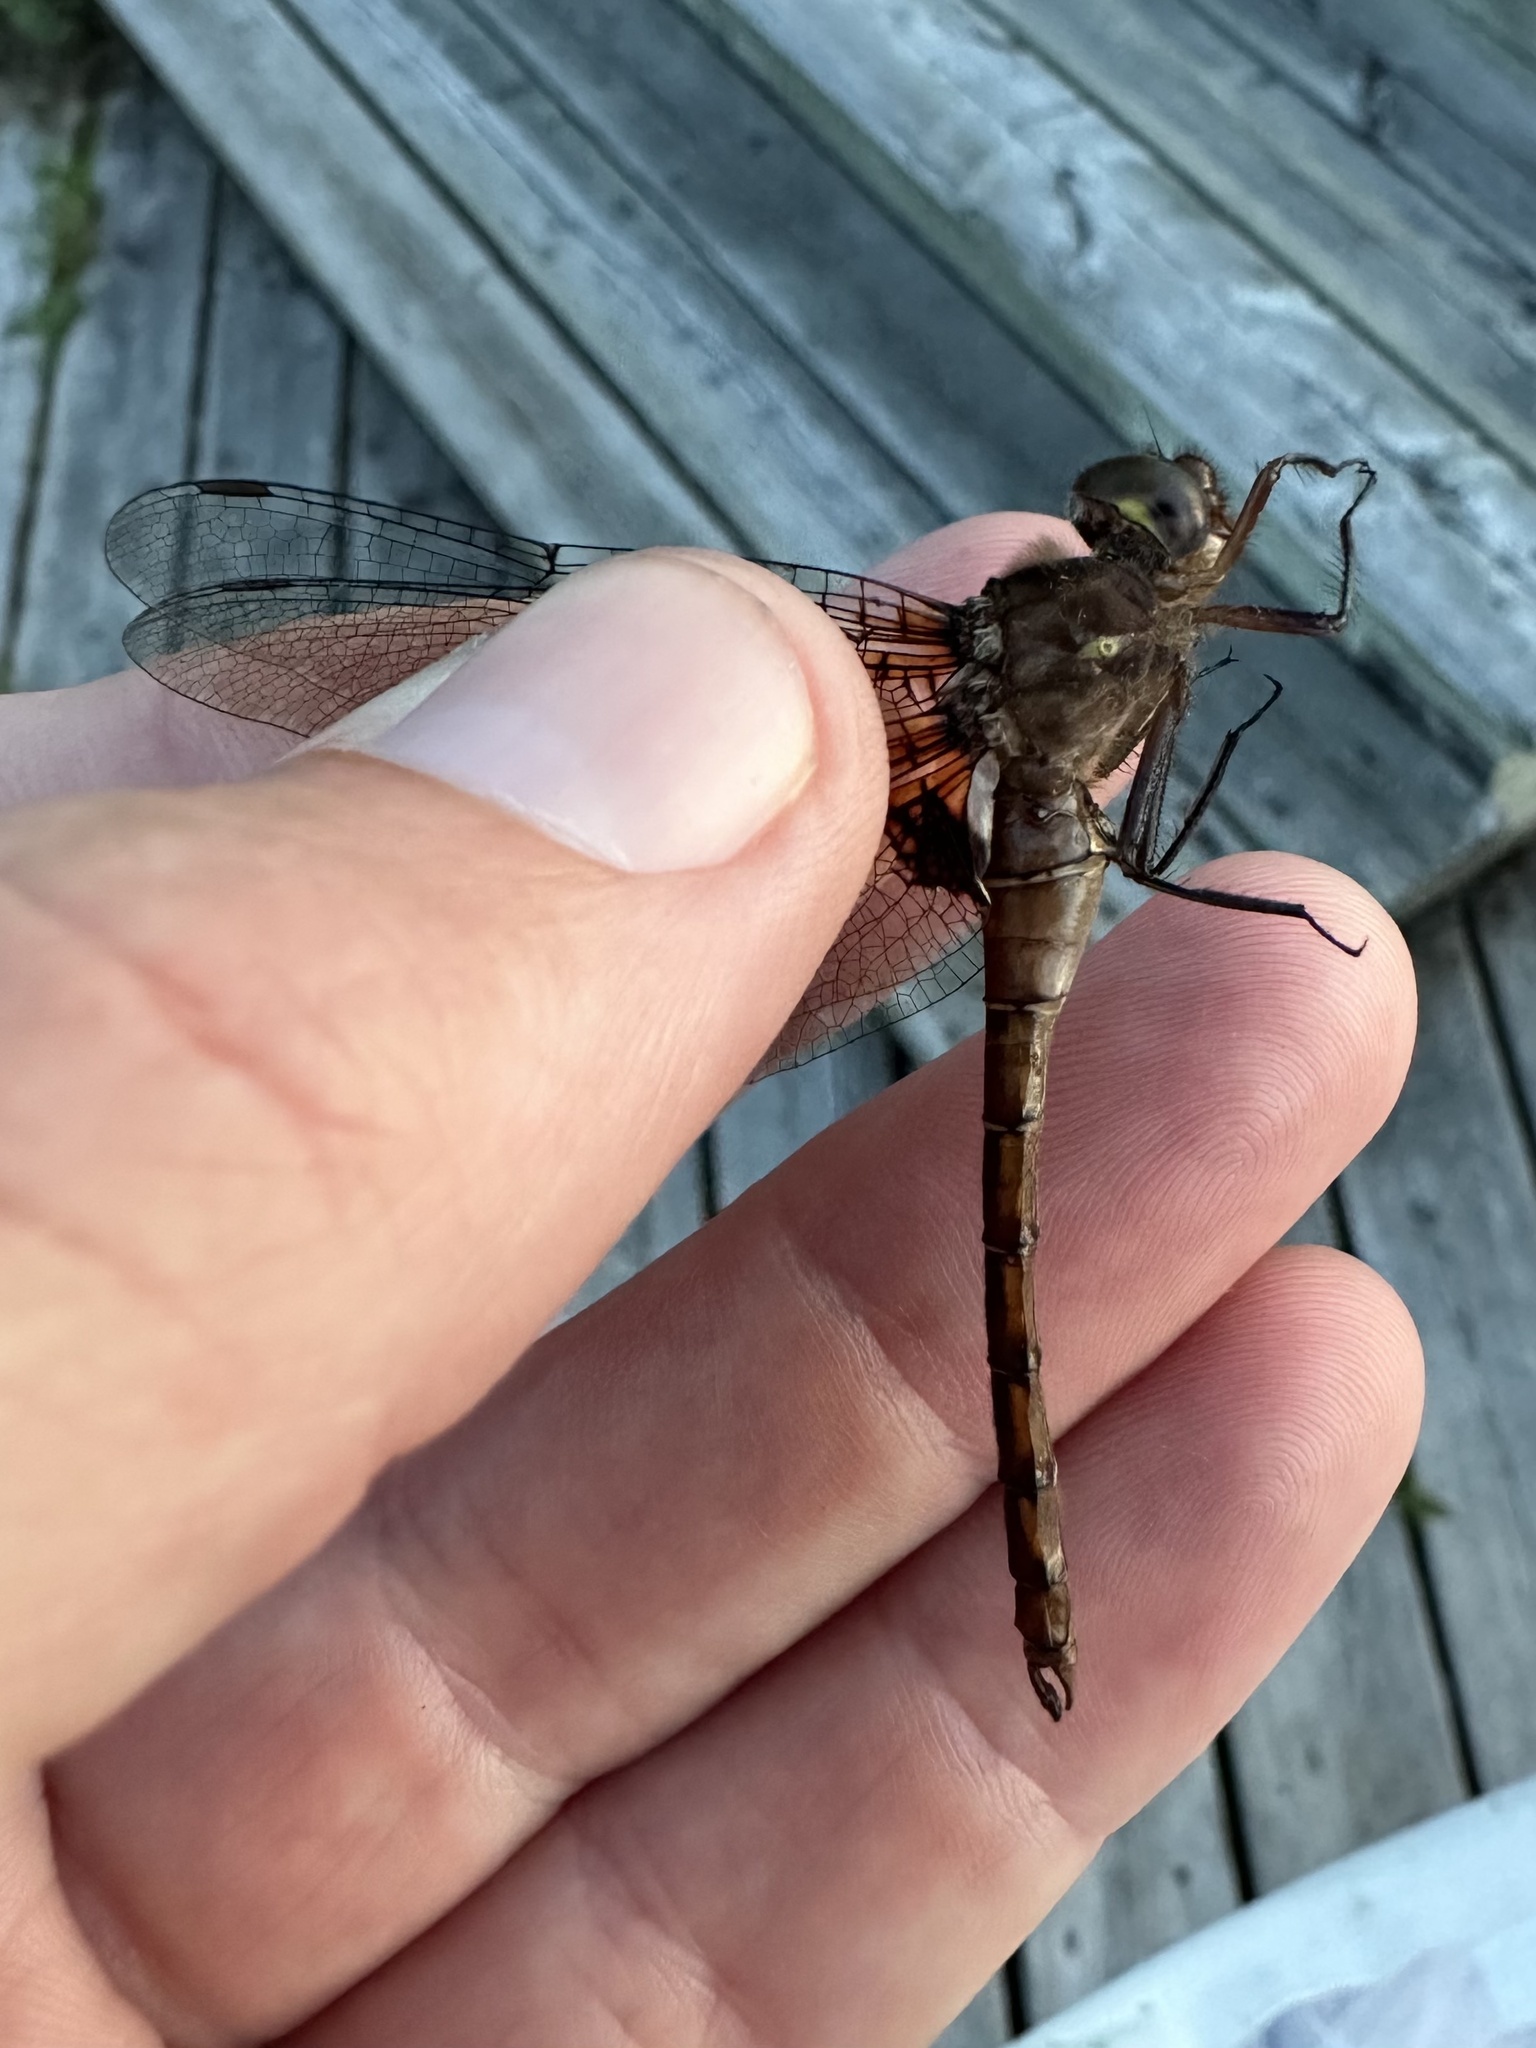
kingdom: Animalia
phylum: Arthropoda
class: Insecta
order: Odonata
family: Corduliidae
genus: Neurocordulia
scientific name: Neurocordulia yamaskanensis
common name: Stygian shadowdragon
